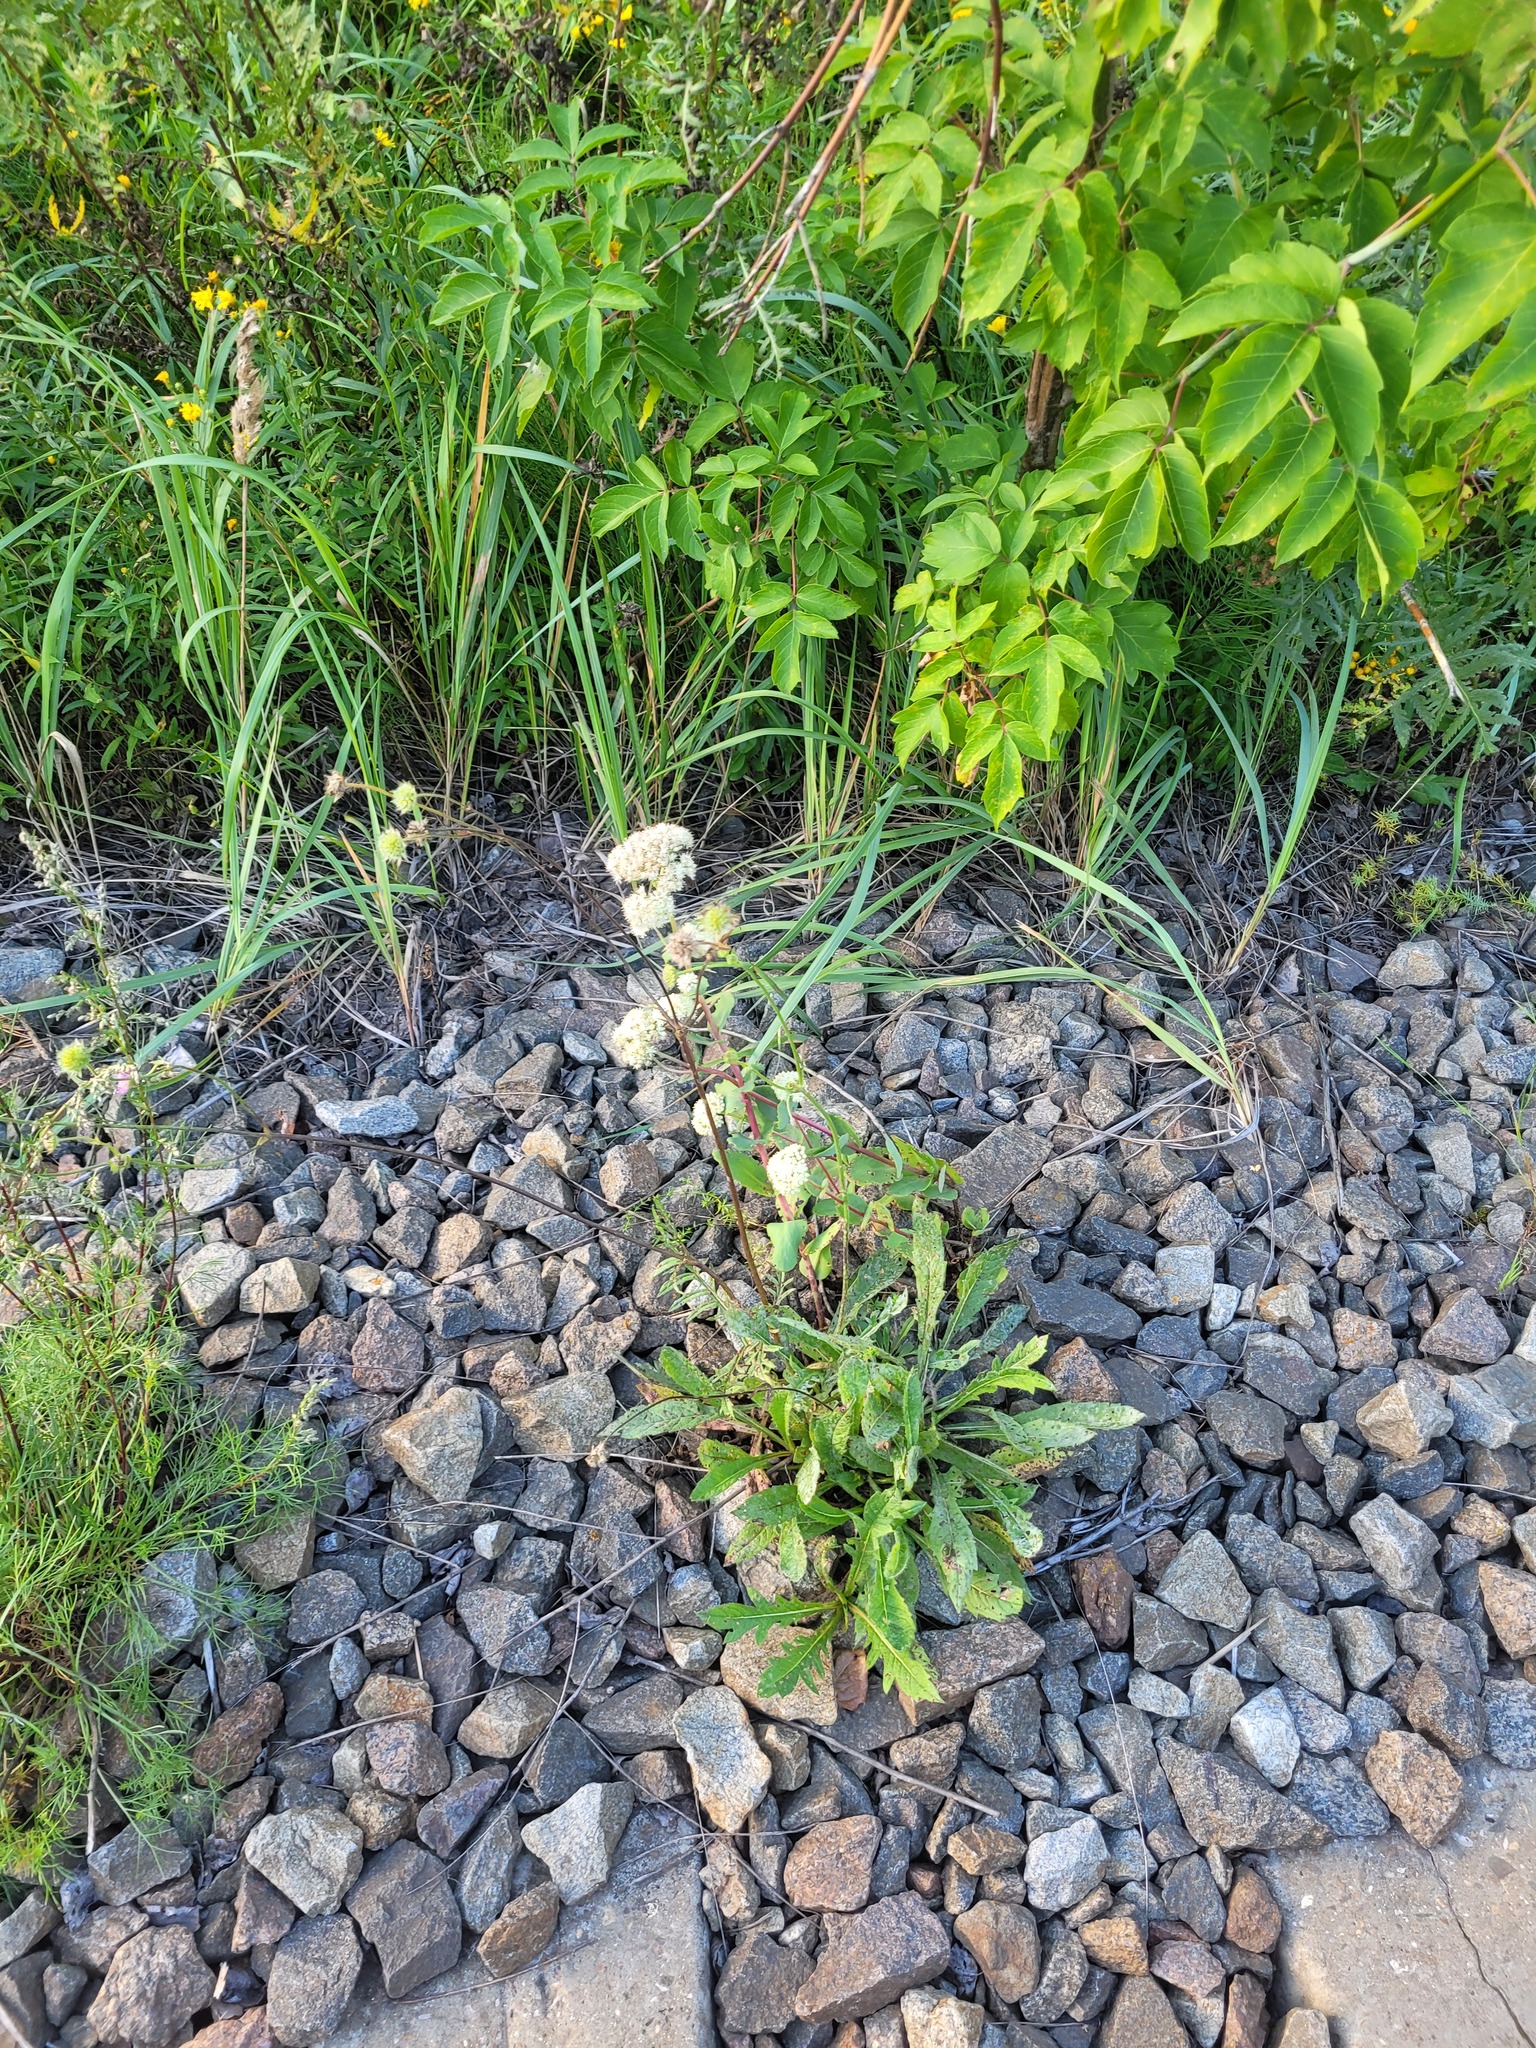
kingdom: Plantae
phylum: Tracheophyta
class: Magnoliopsida
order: Saxifragales
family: Crassulaceae
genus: Hylotelephium
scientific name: Hylotelephium maximum
